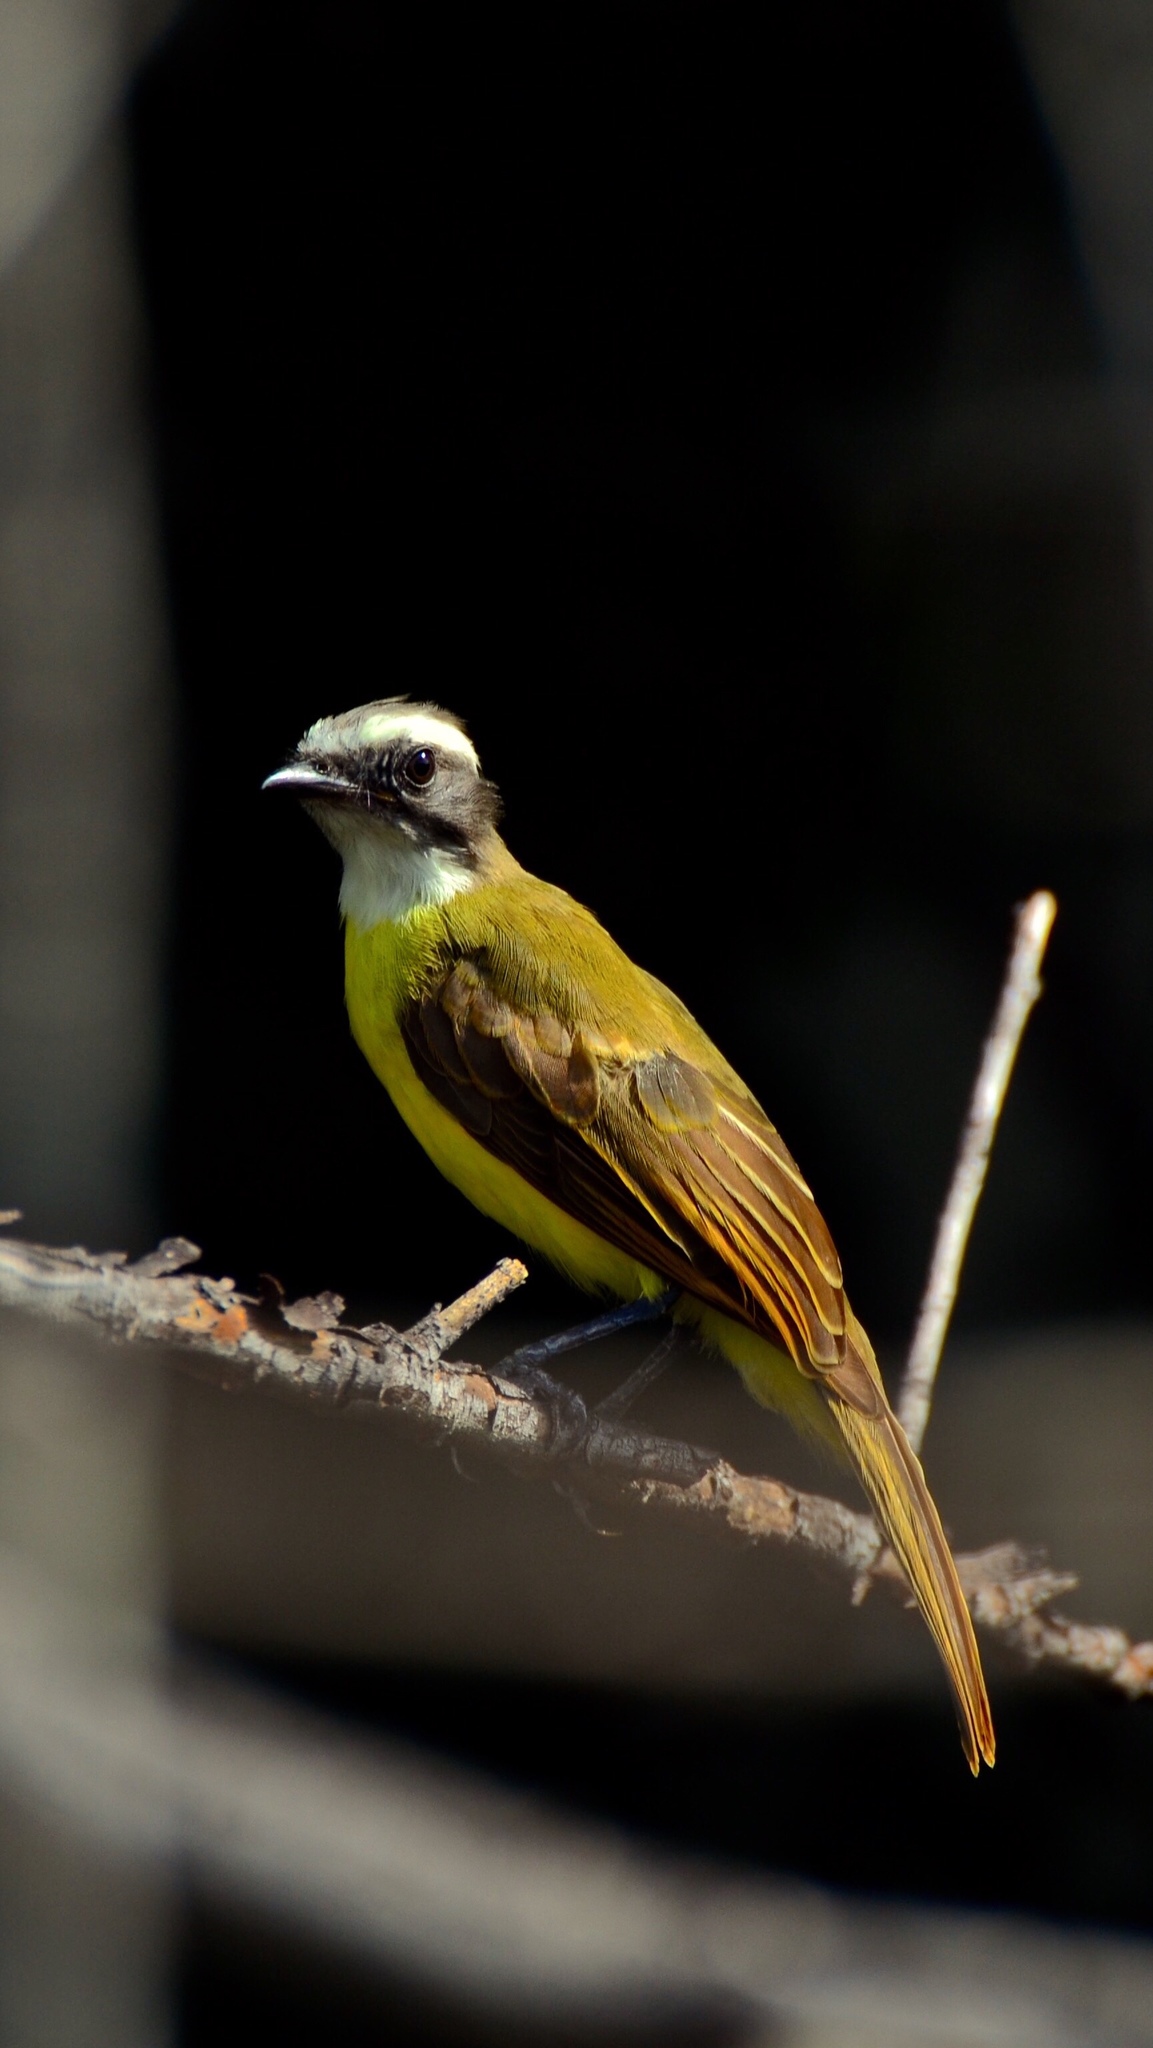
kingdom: Animalia
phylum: Chordata
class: Aves
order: Passeriformes
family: Tyrannidae
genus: Myiozetetes
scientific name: Myiozetetes similis
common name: Social flycatcher
